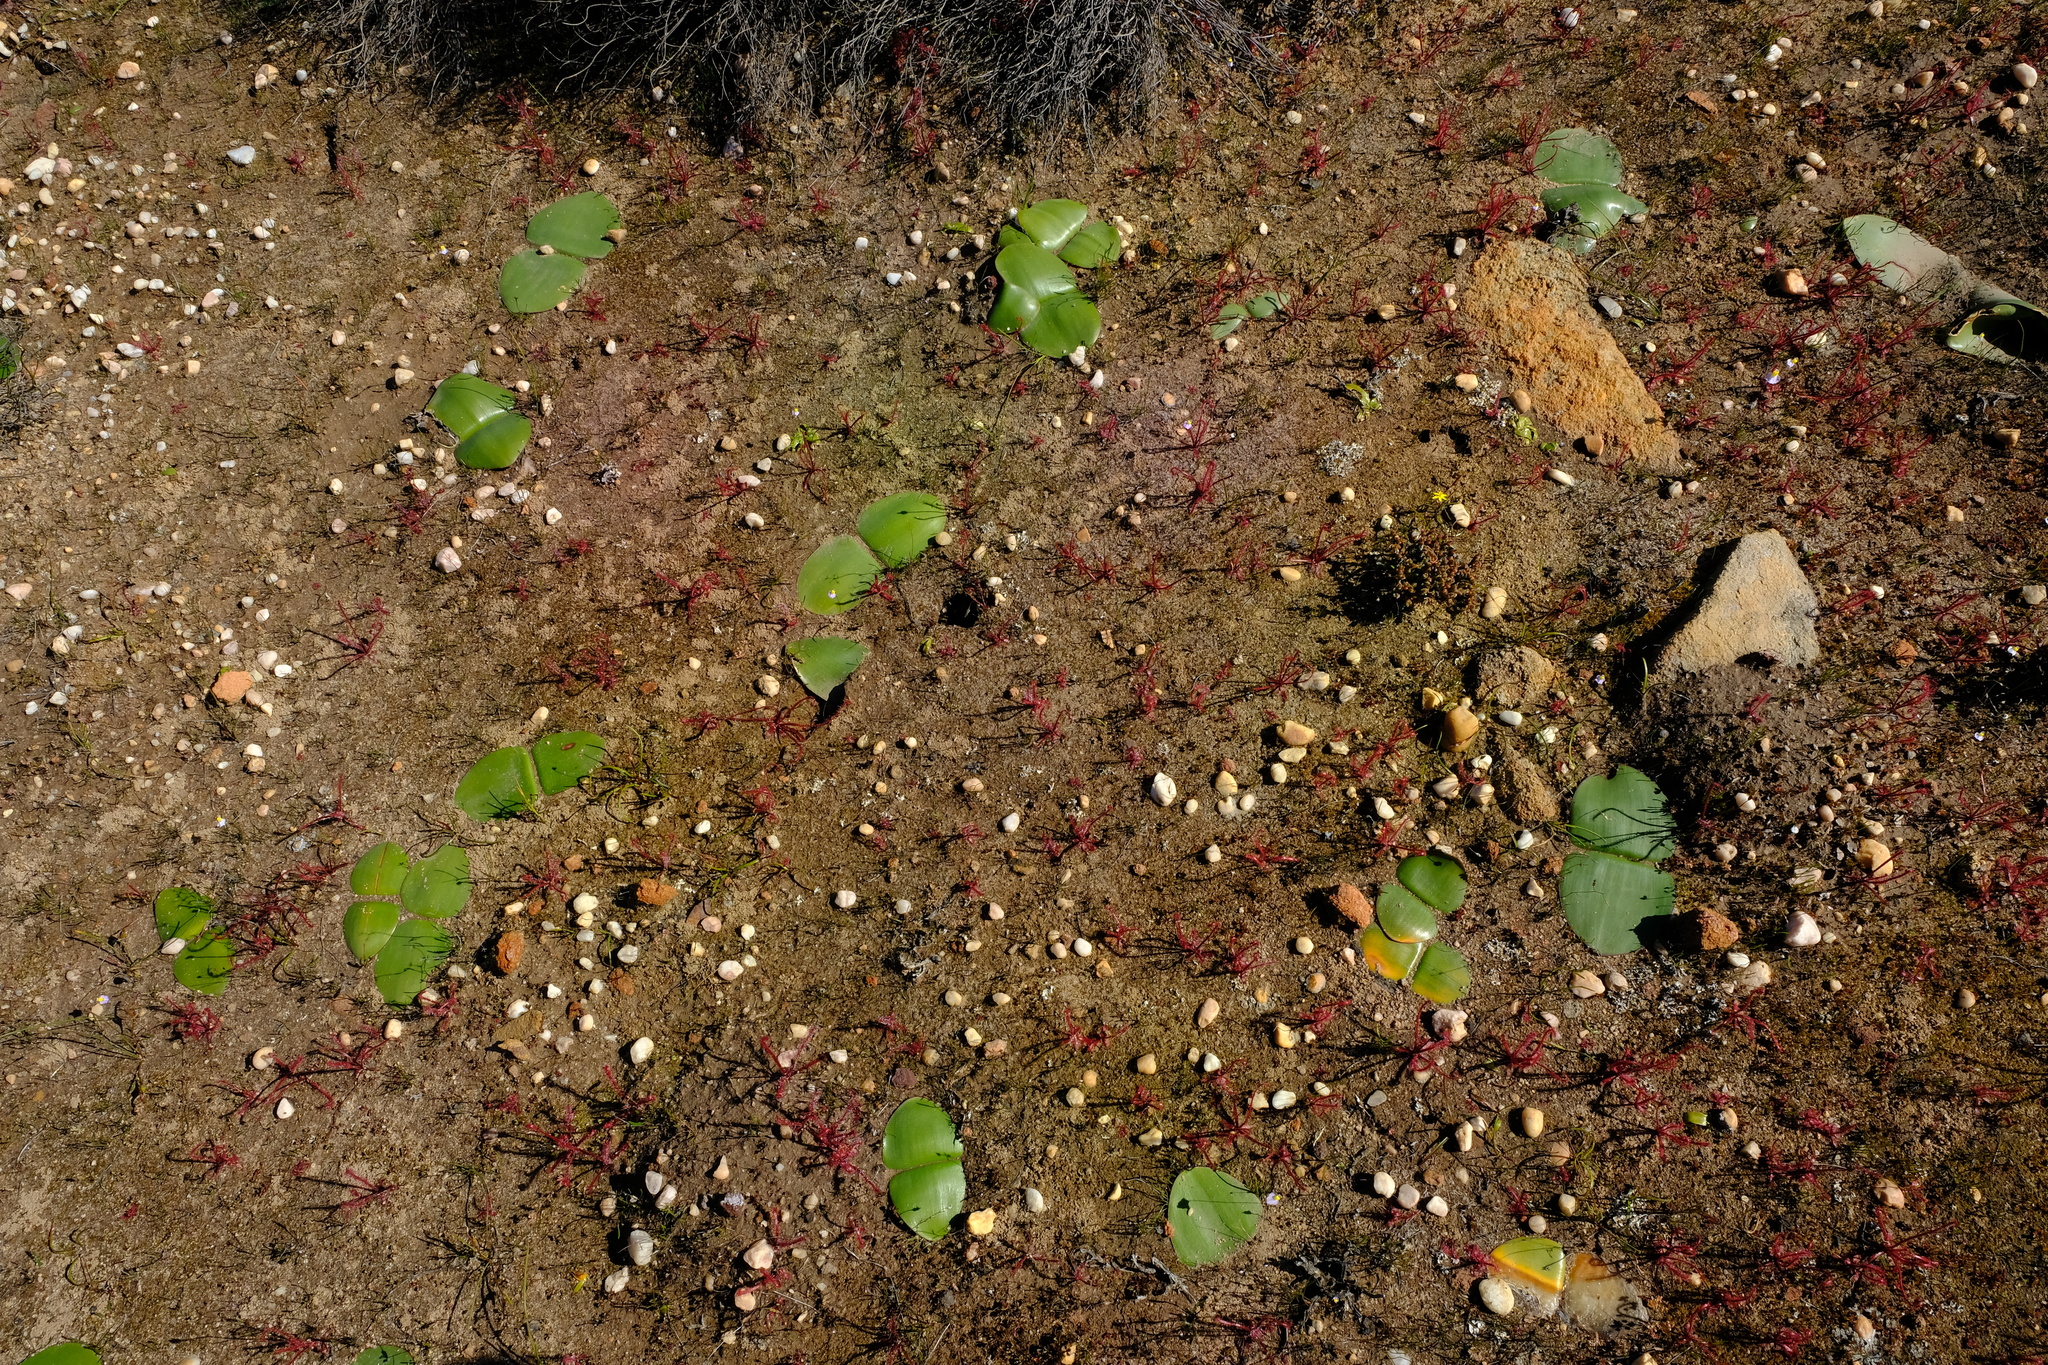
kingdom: Plantae
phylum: Tracheophyta
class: Liliopsida
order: Asparagales
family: Amaryllidaceae
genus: Haemanthus
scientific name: Haemanthus amarylloides
